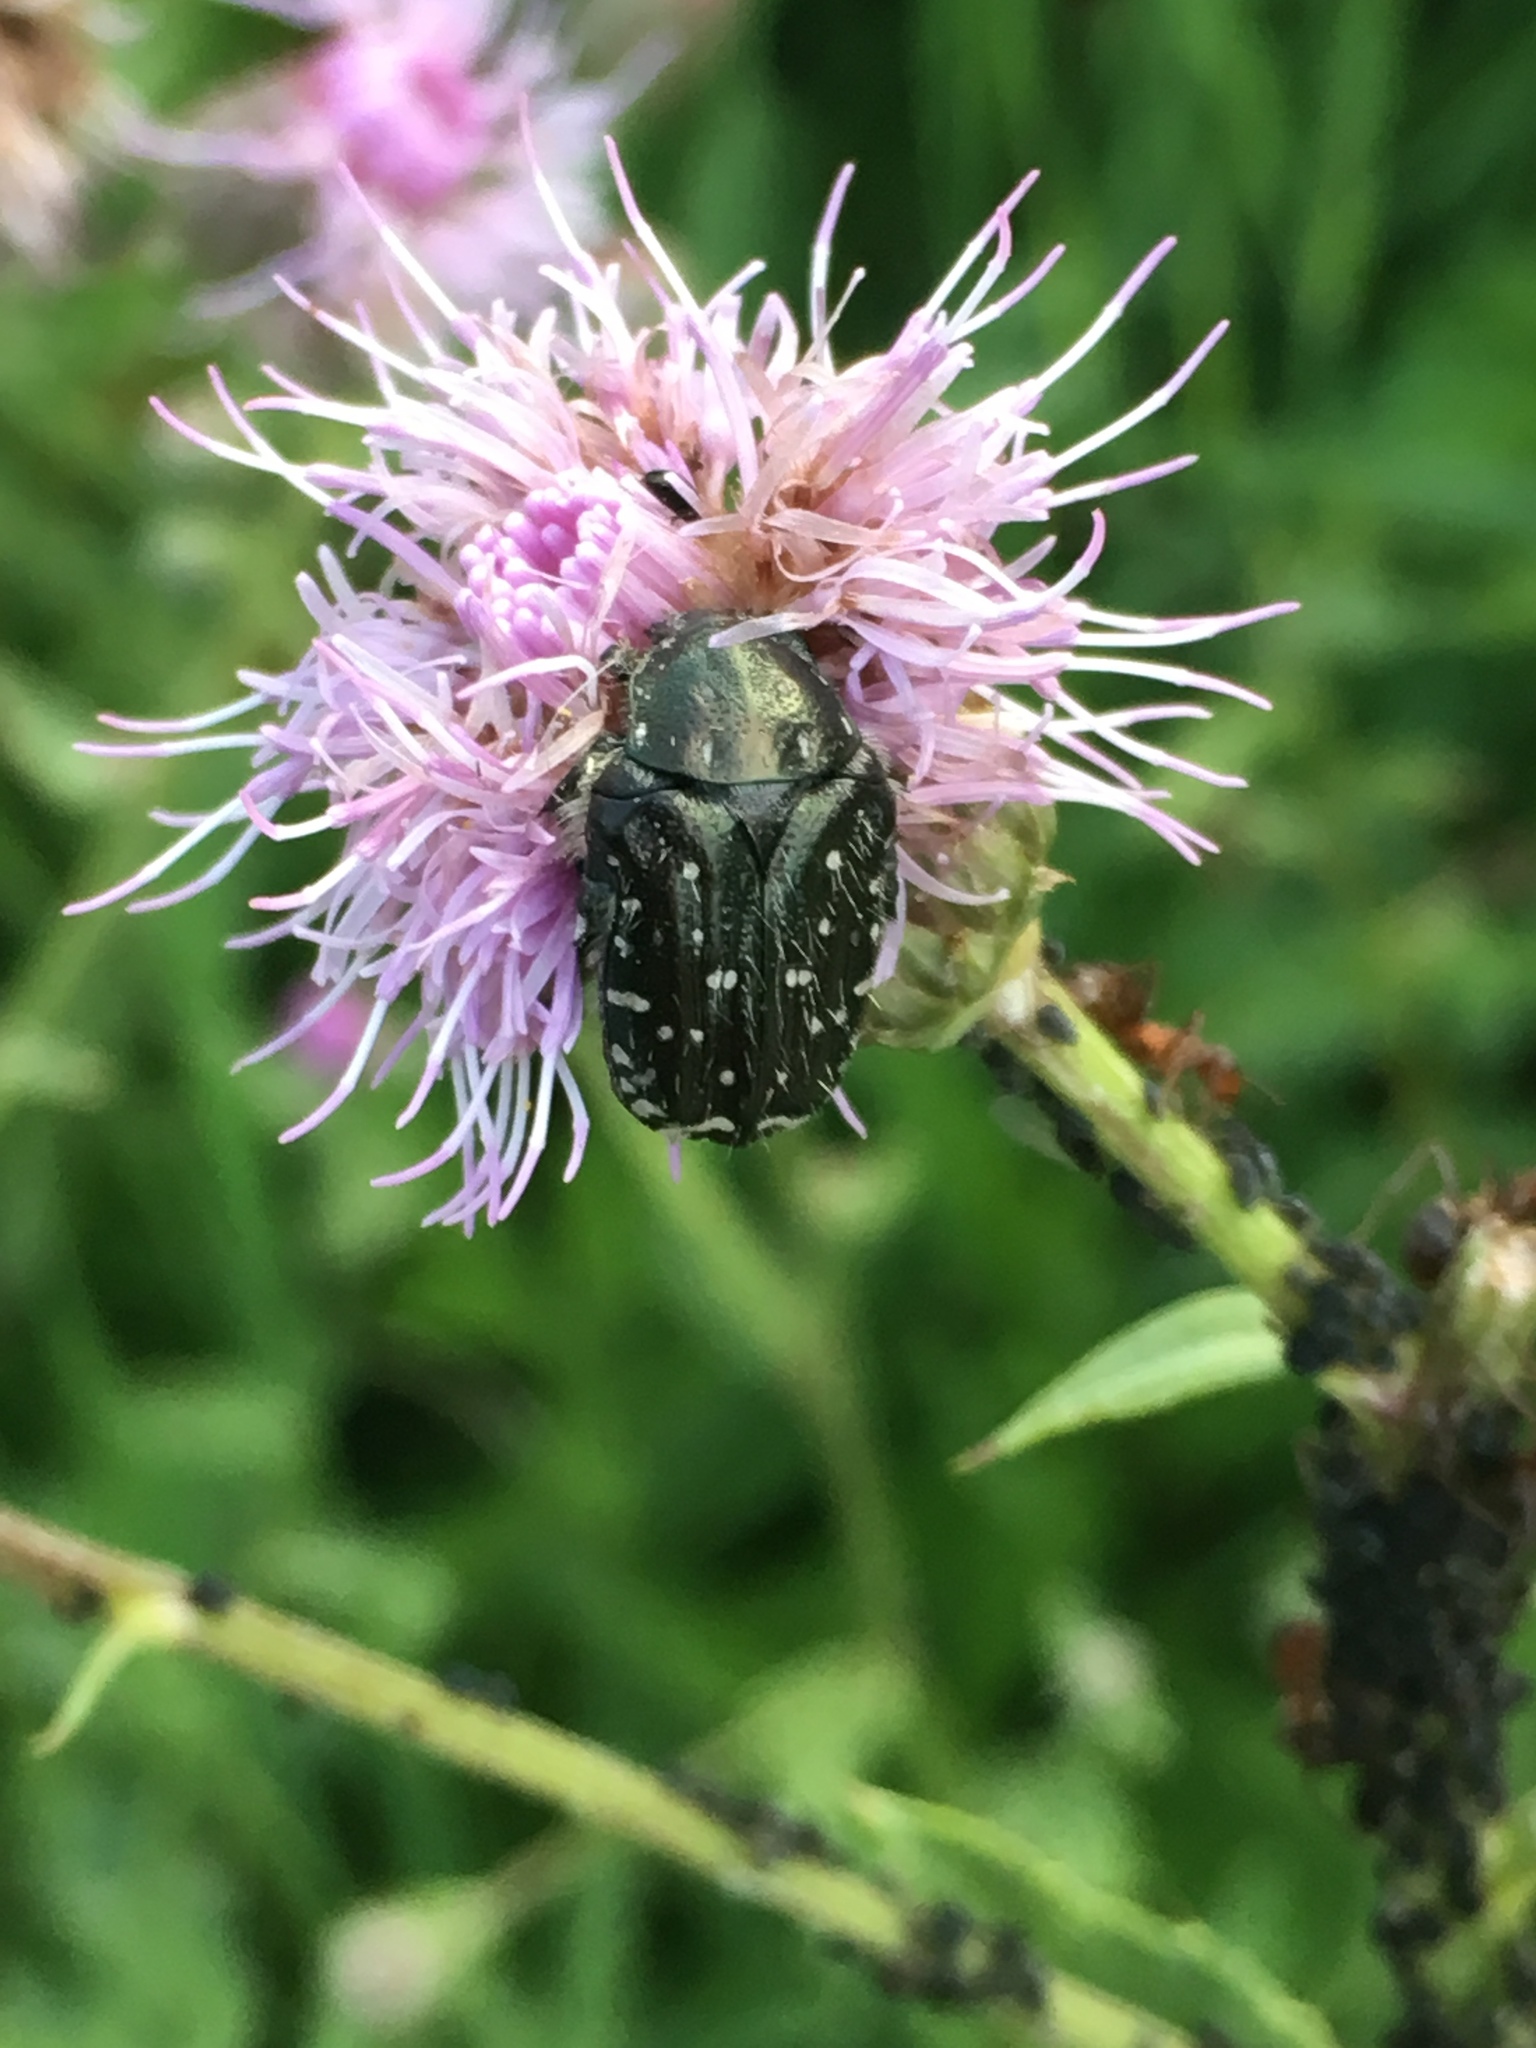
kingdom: Animalia
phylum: Arthropoda
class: Insecta
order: Coleoptera
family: Scarabaeidae
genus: Oxythyrea
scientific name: Oxythyrea funesta
